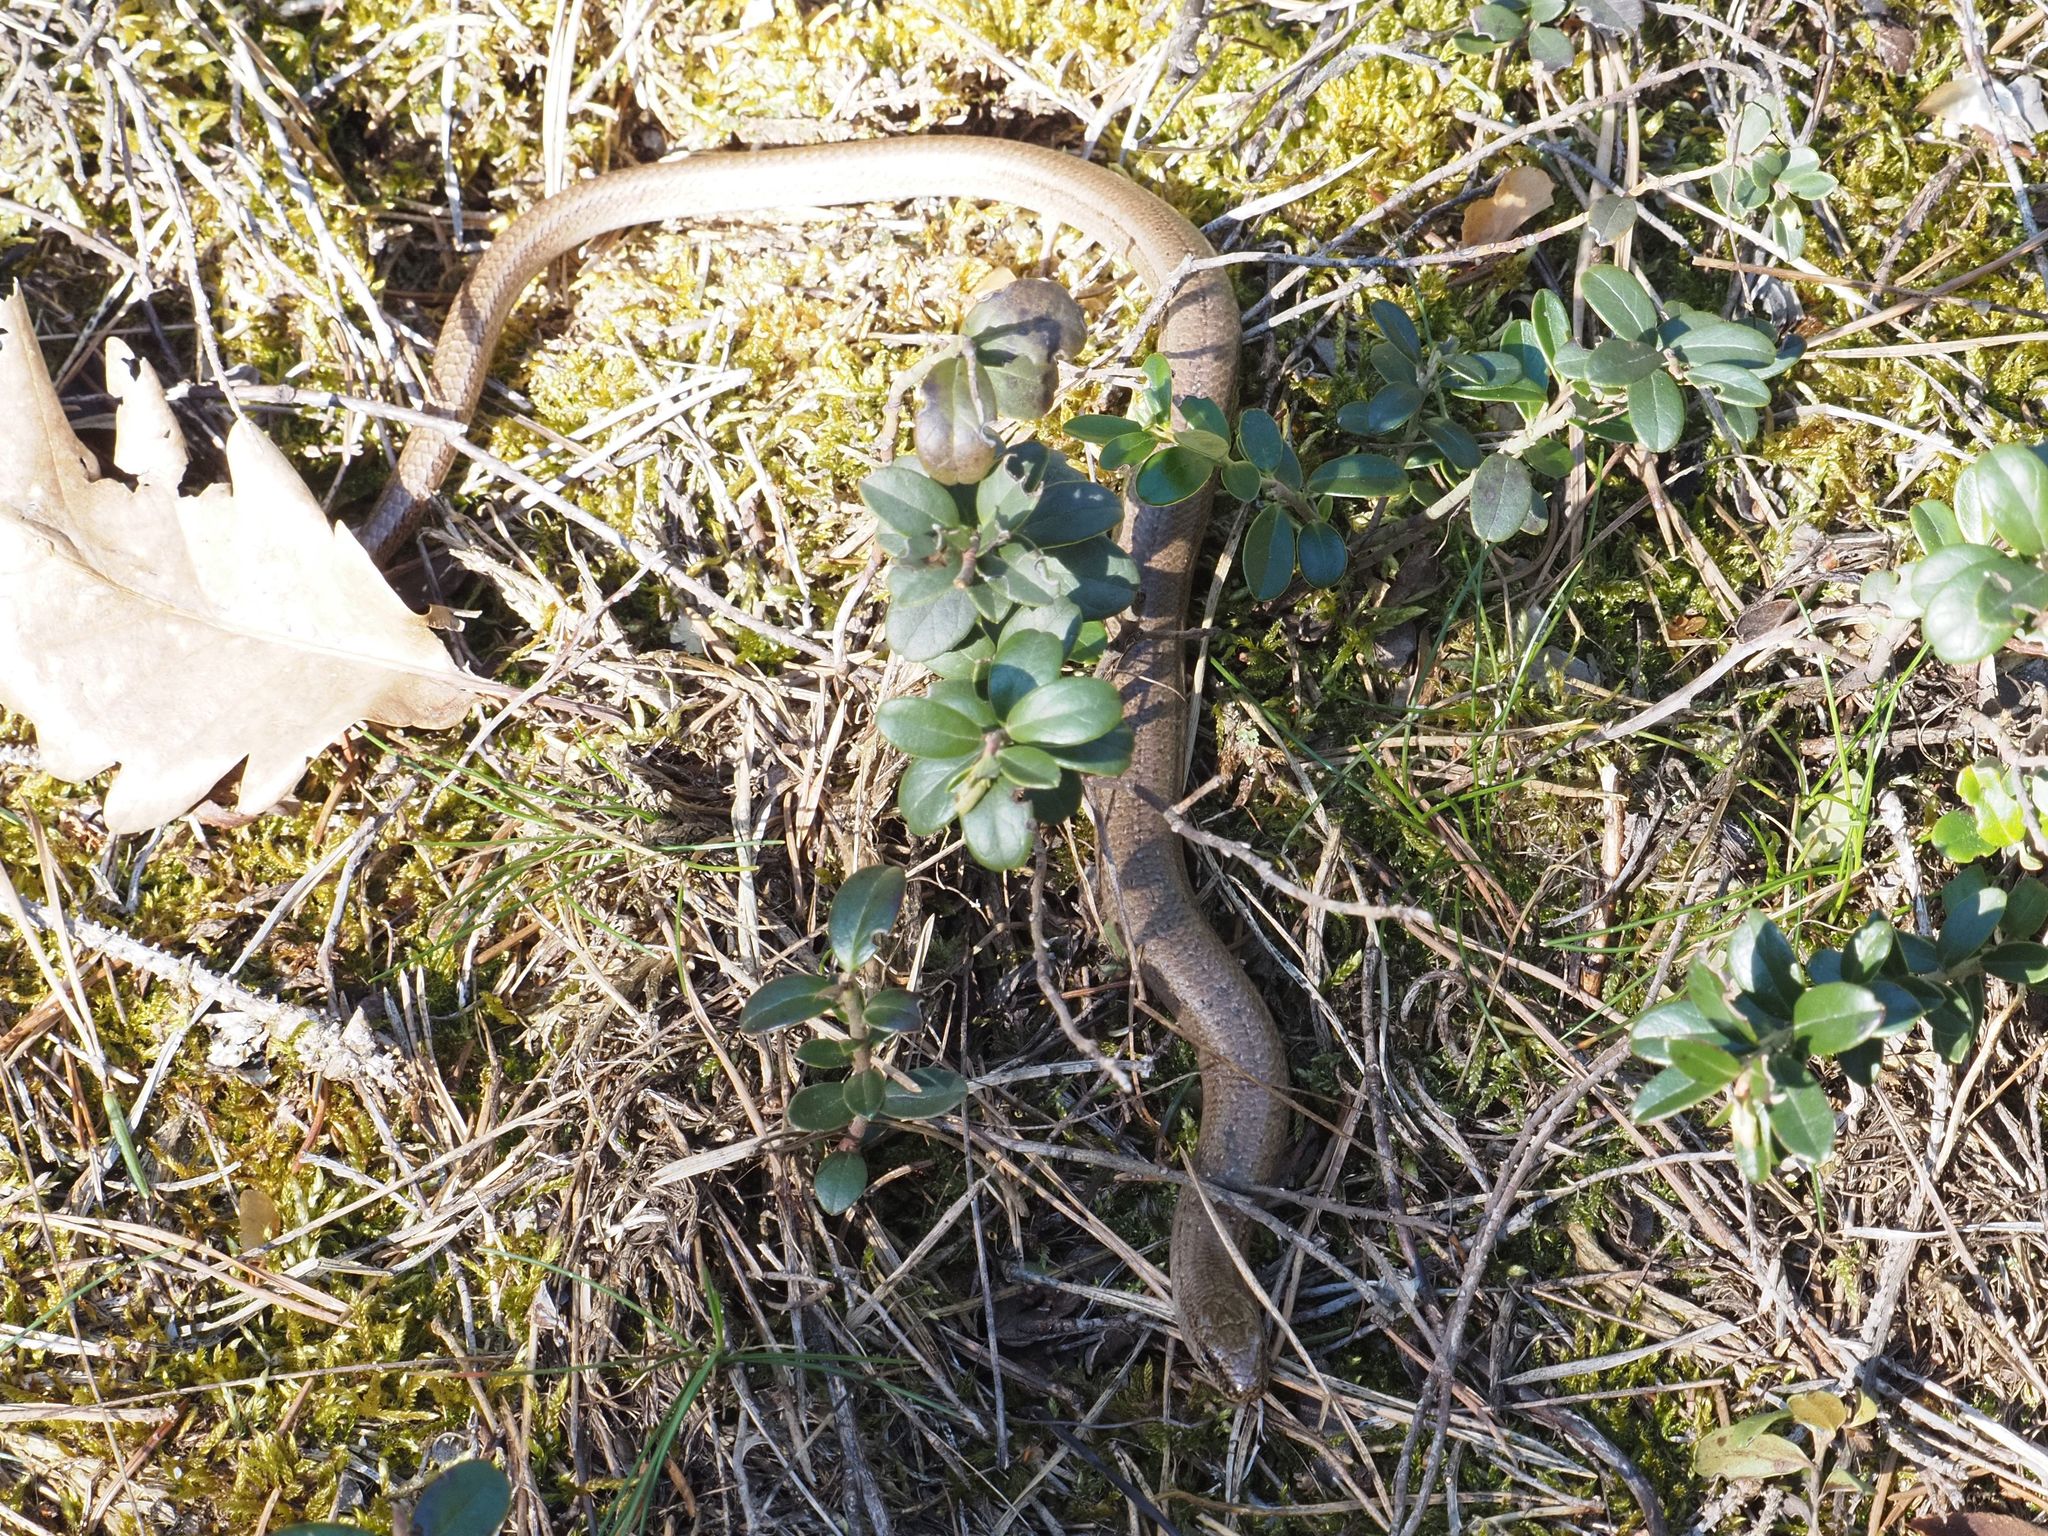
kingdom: Animalia
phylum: Chordata
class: Squamata
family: Anguidae
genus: Anguis
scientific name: Anguis fragilis
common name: Slow worm
